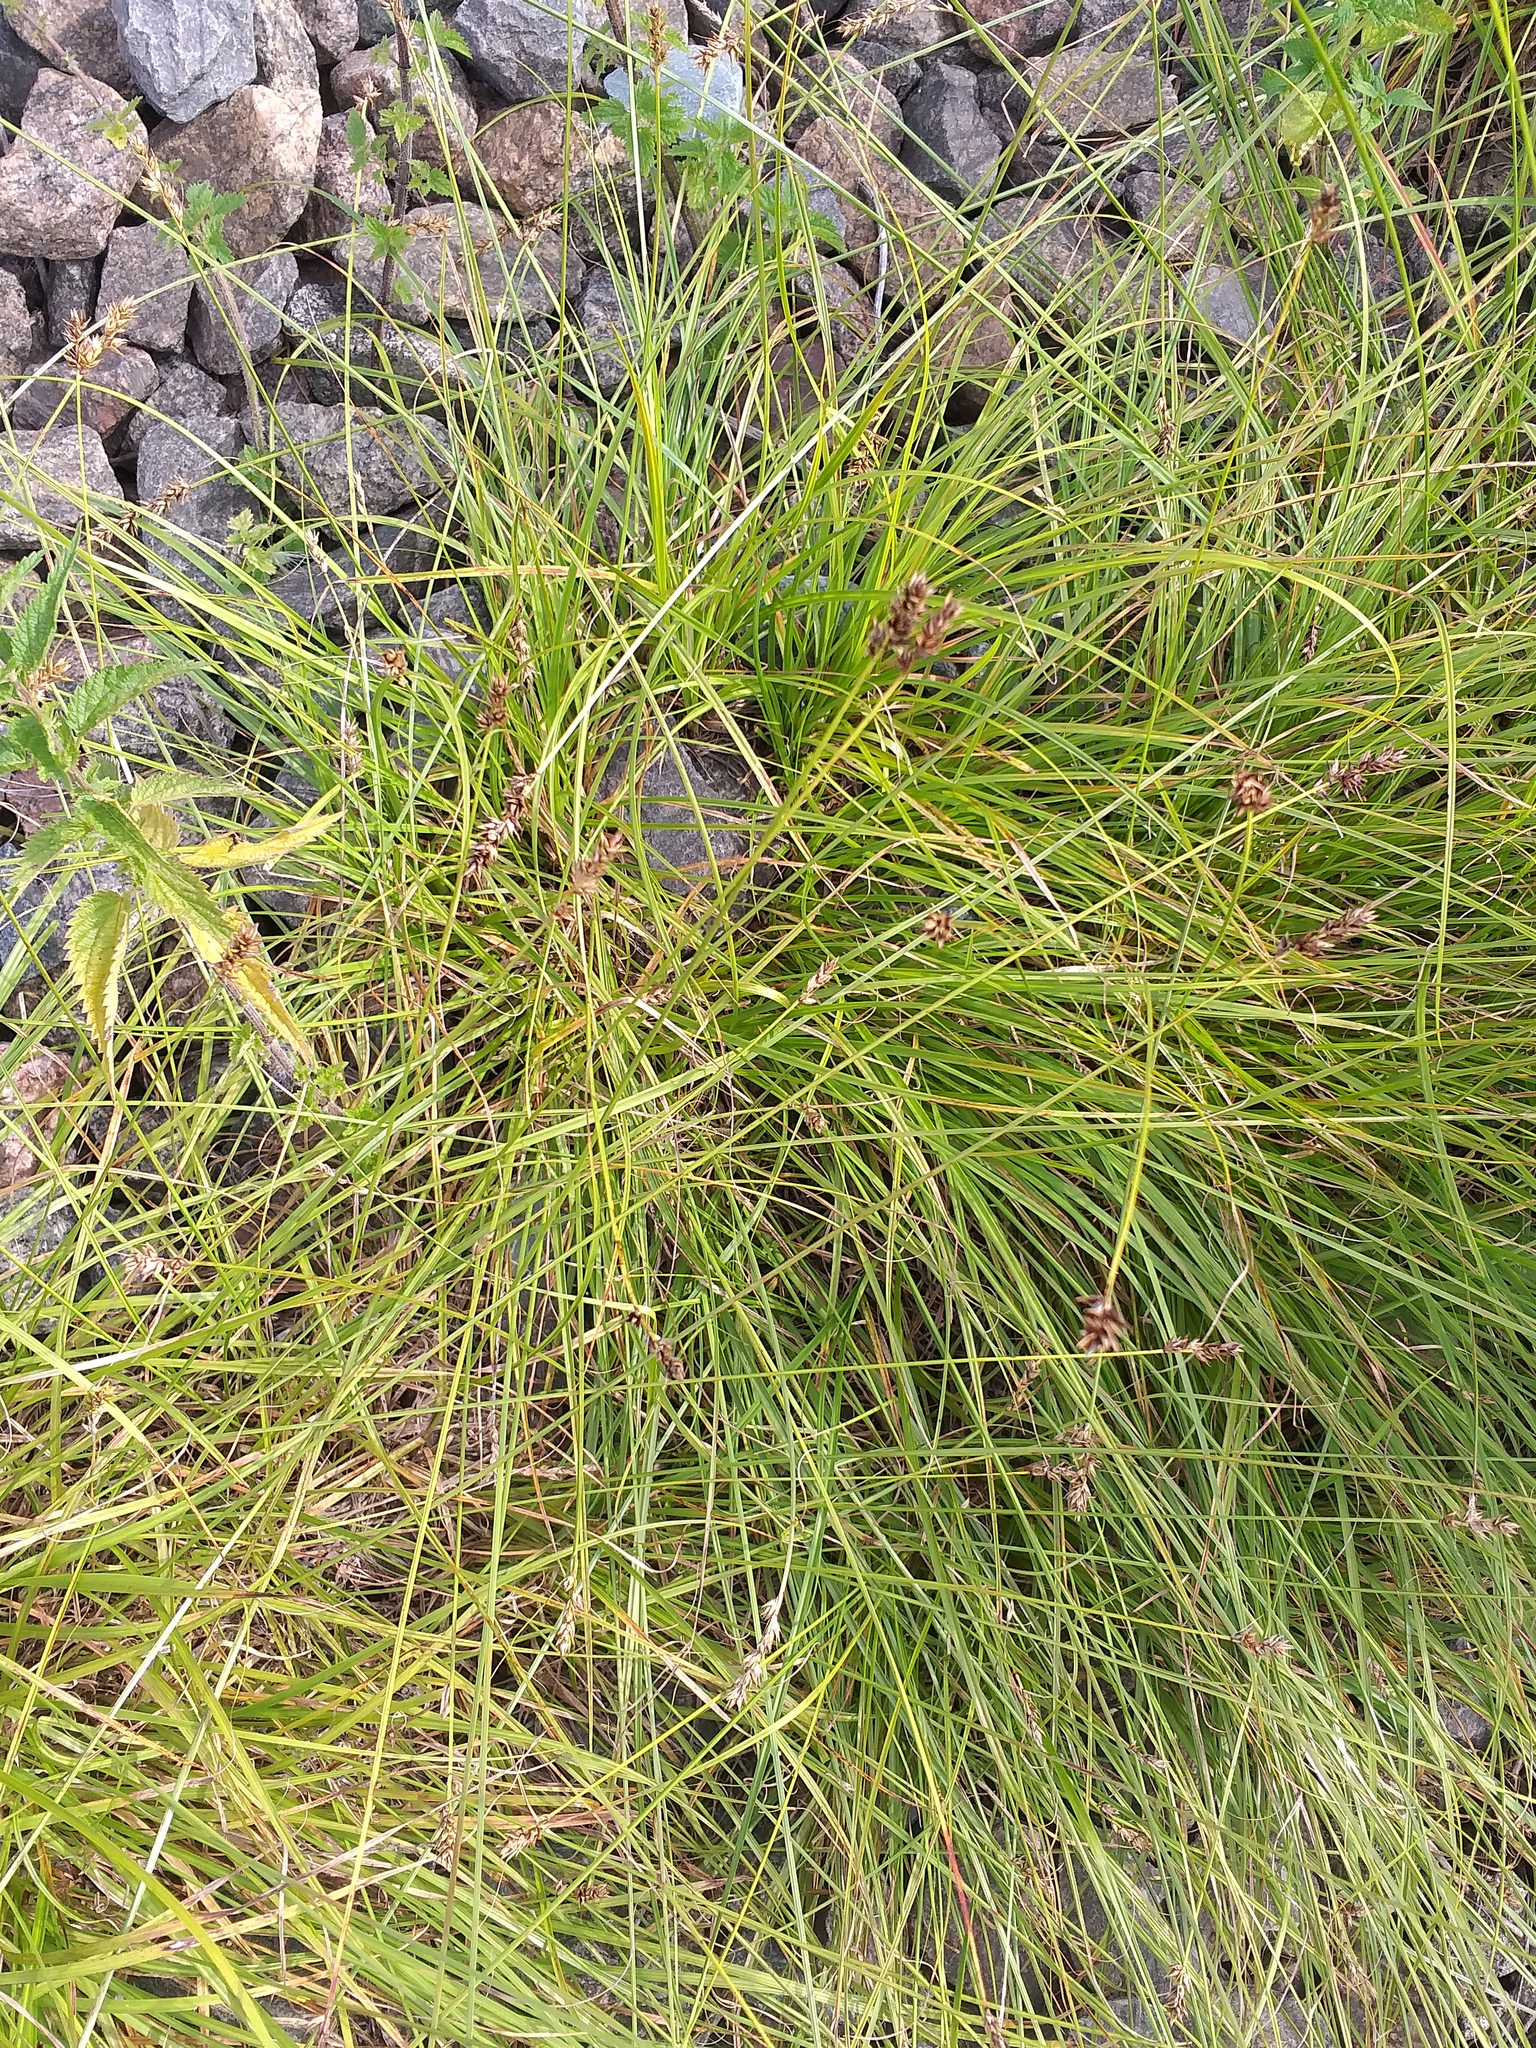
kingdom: Plantae
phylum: Tracheophyta
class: Liliopsida
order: Poales
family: Cyperaceae
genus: Carex
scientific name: Carex spicata
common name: Spiked sedge
